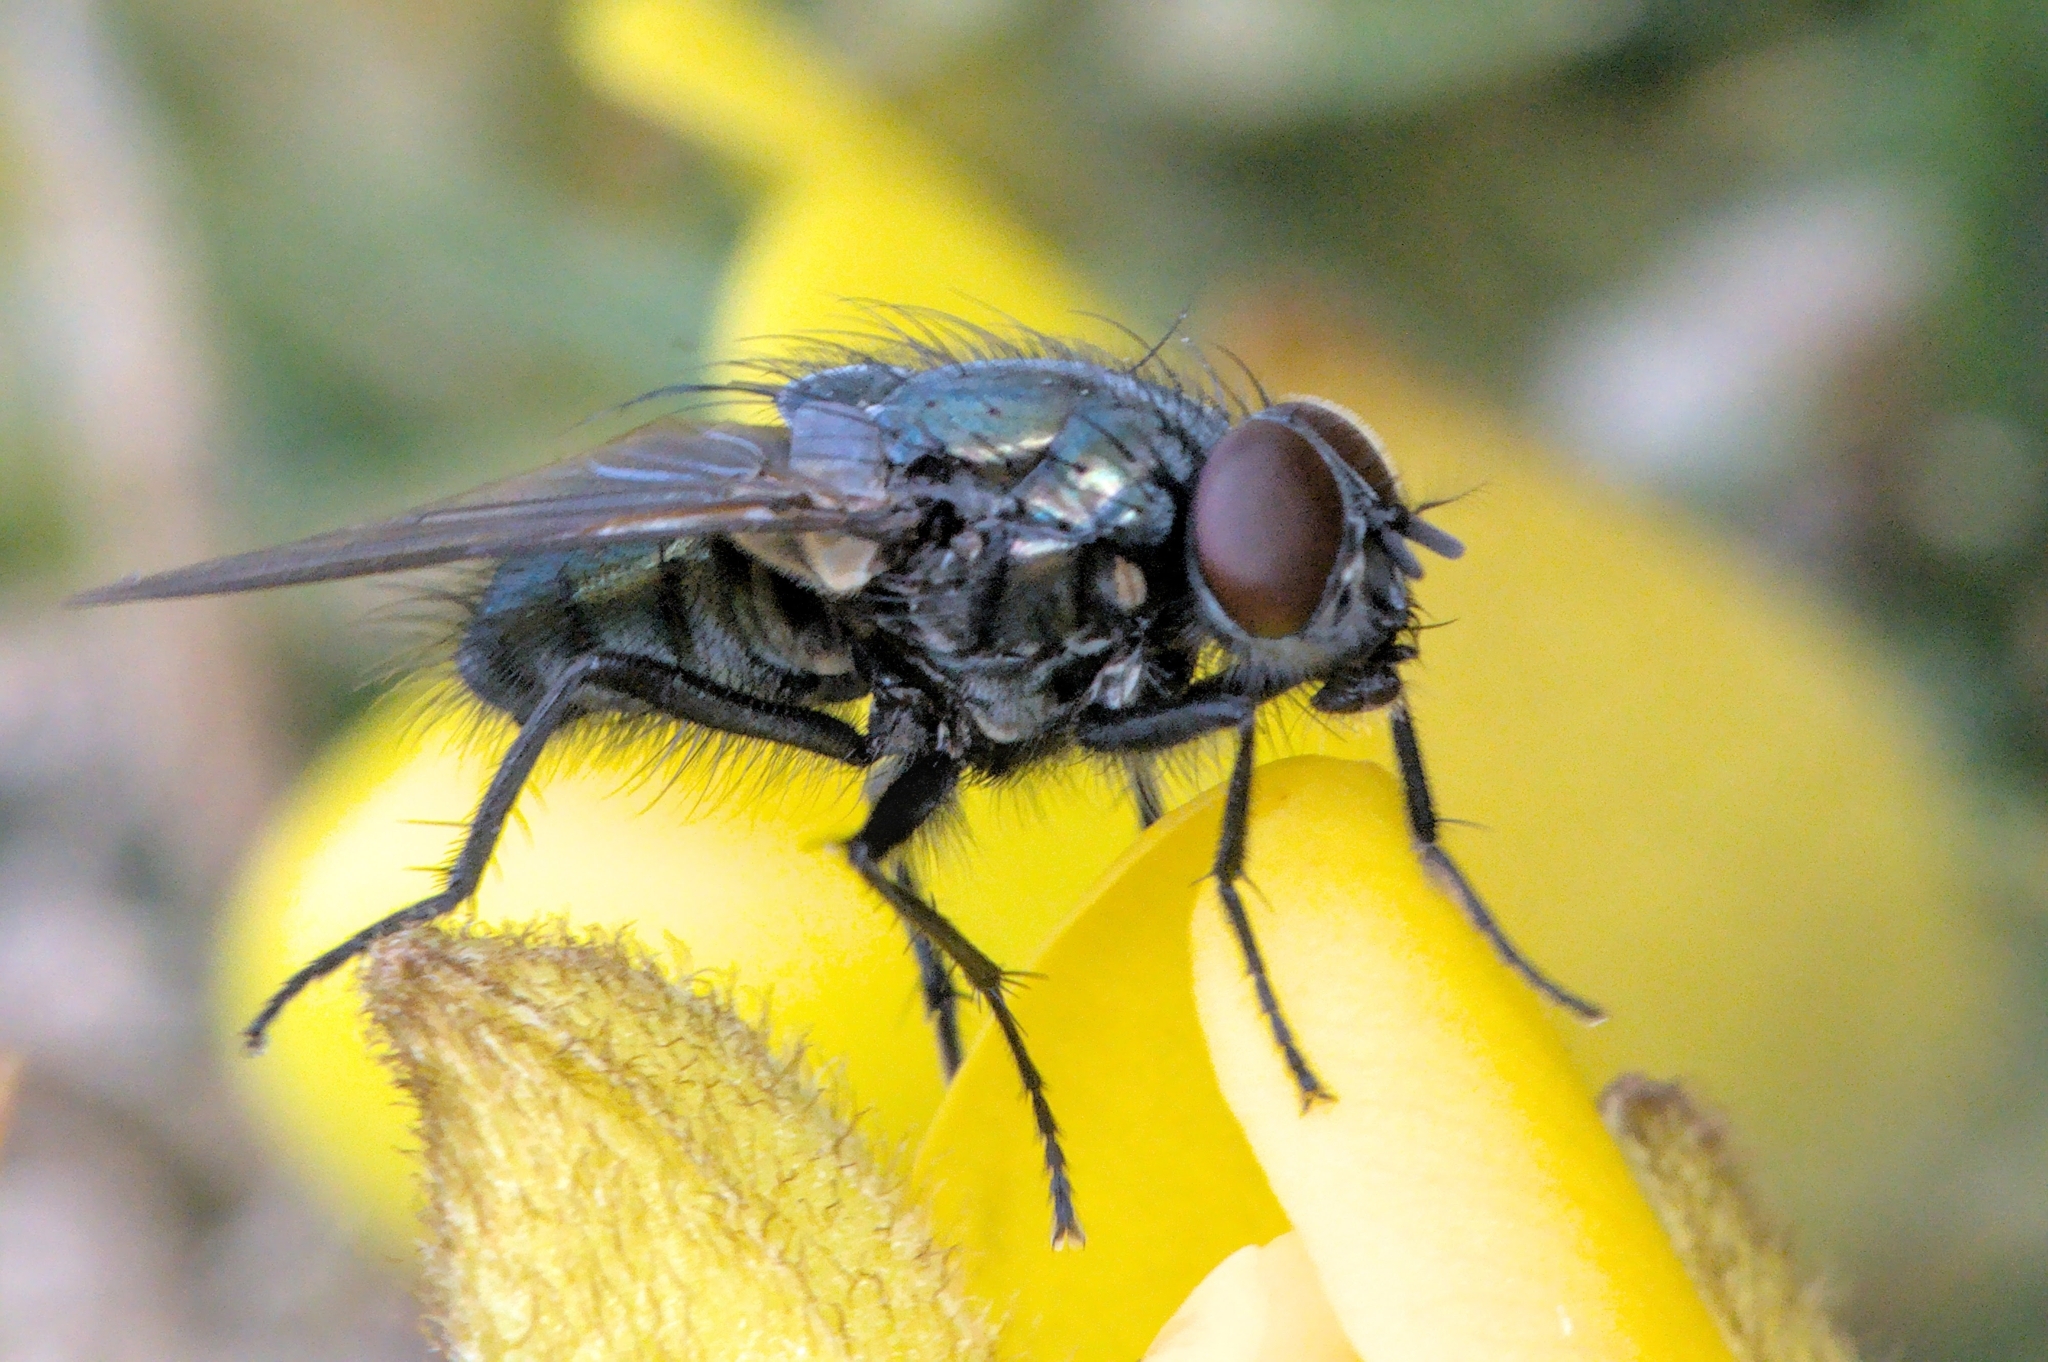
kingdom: Animalia
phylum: Arthropoda
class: Insecta
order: Diptera
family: Muscidae
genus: Dasyphora
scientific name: Dasyphora cyanella
